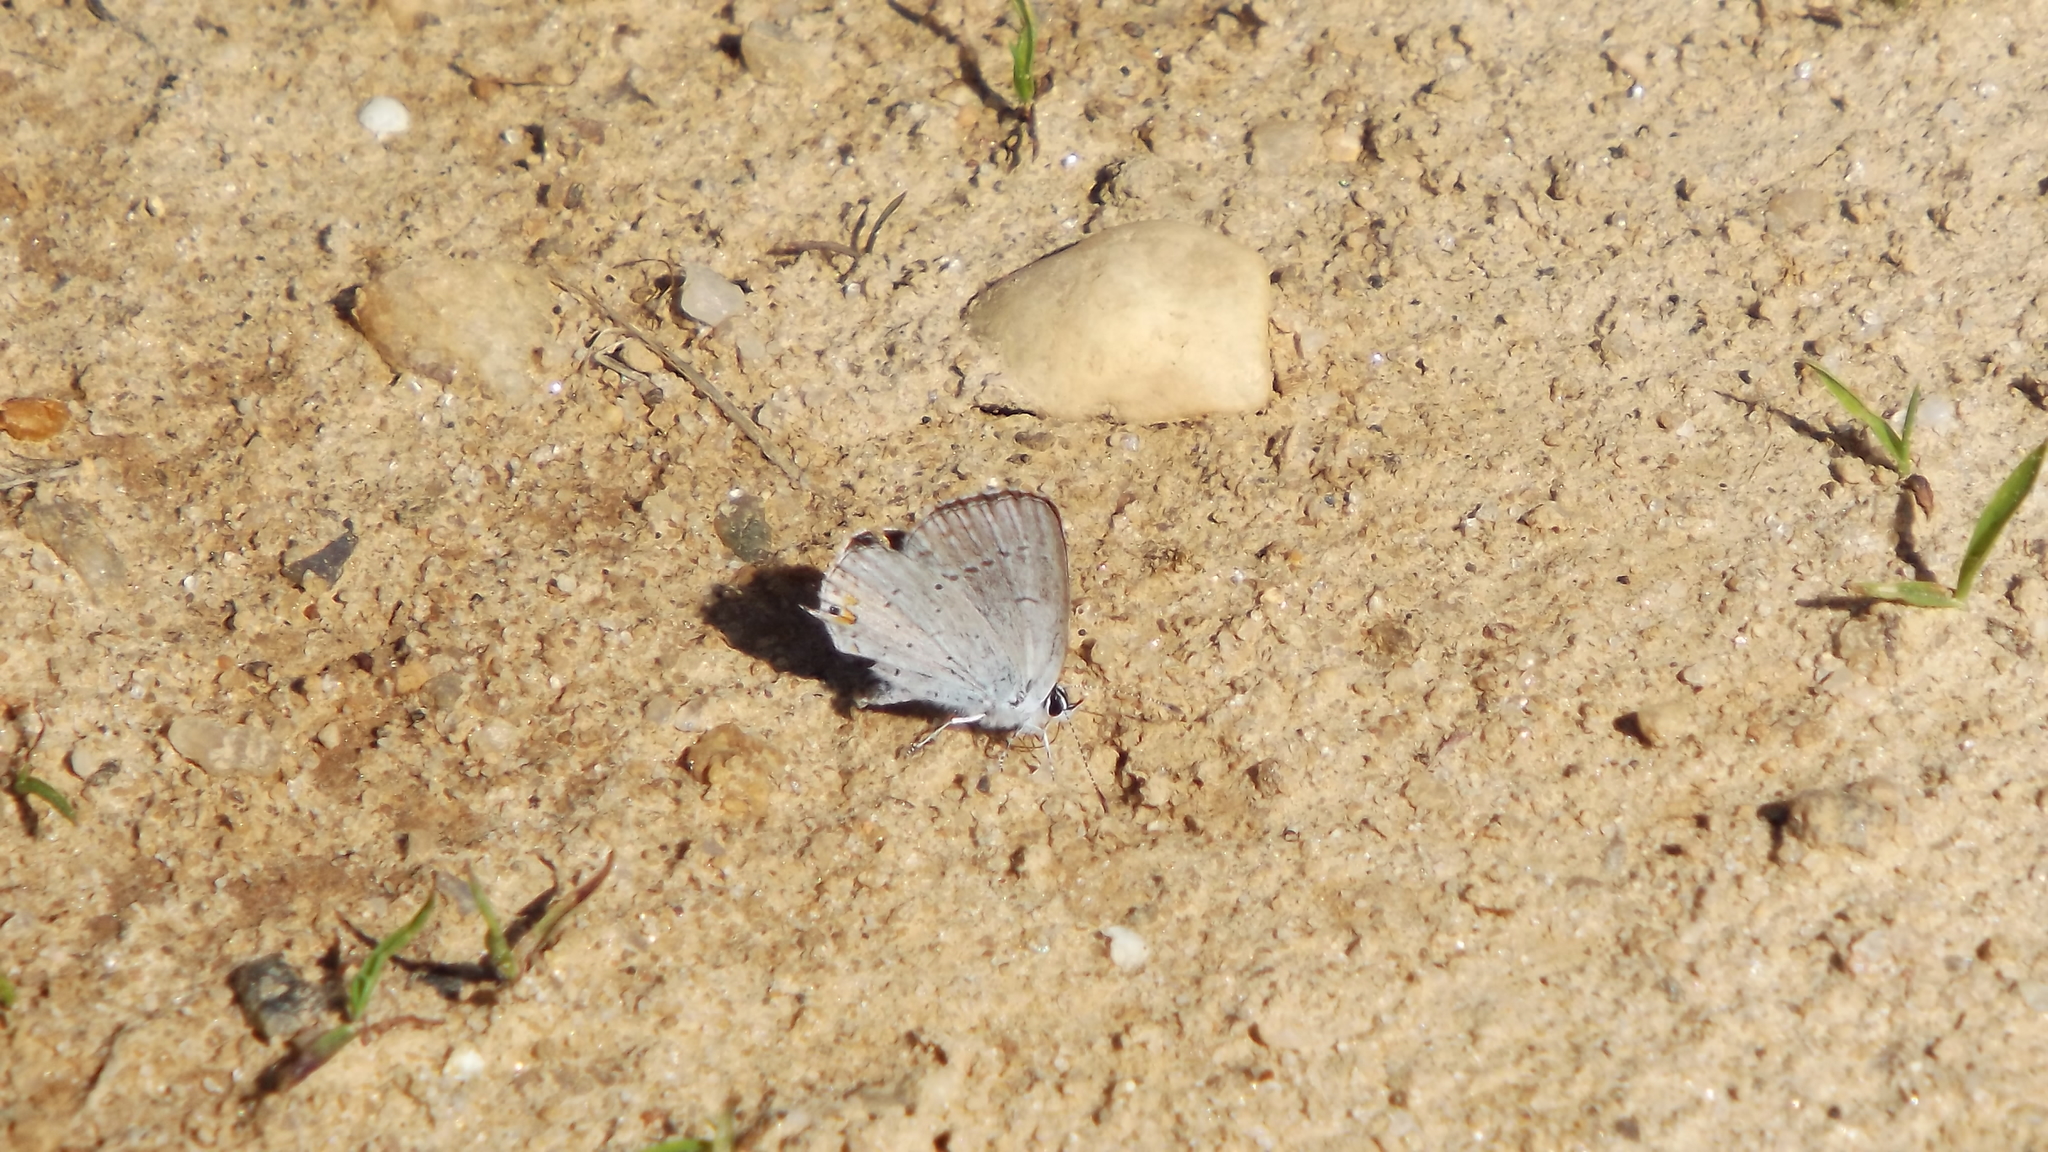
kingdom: Animalia
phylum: Arthropoda
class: Insecta
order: Lepidoptera
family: Lycaenidae
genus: Elkalyce
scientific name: Elkalyce comyntas
